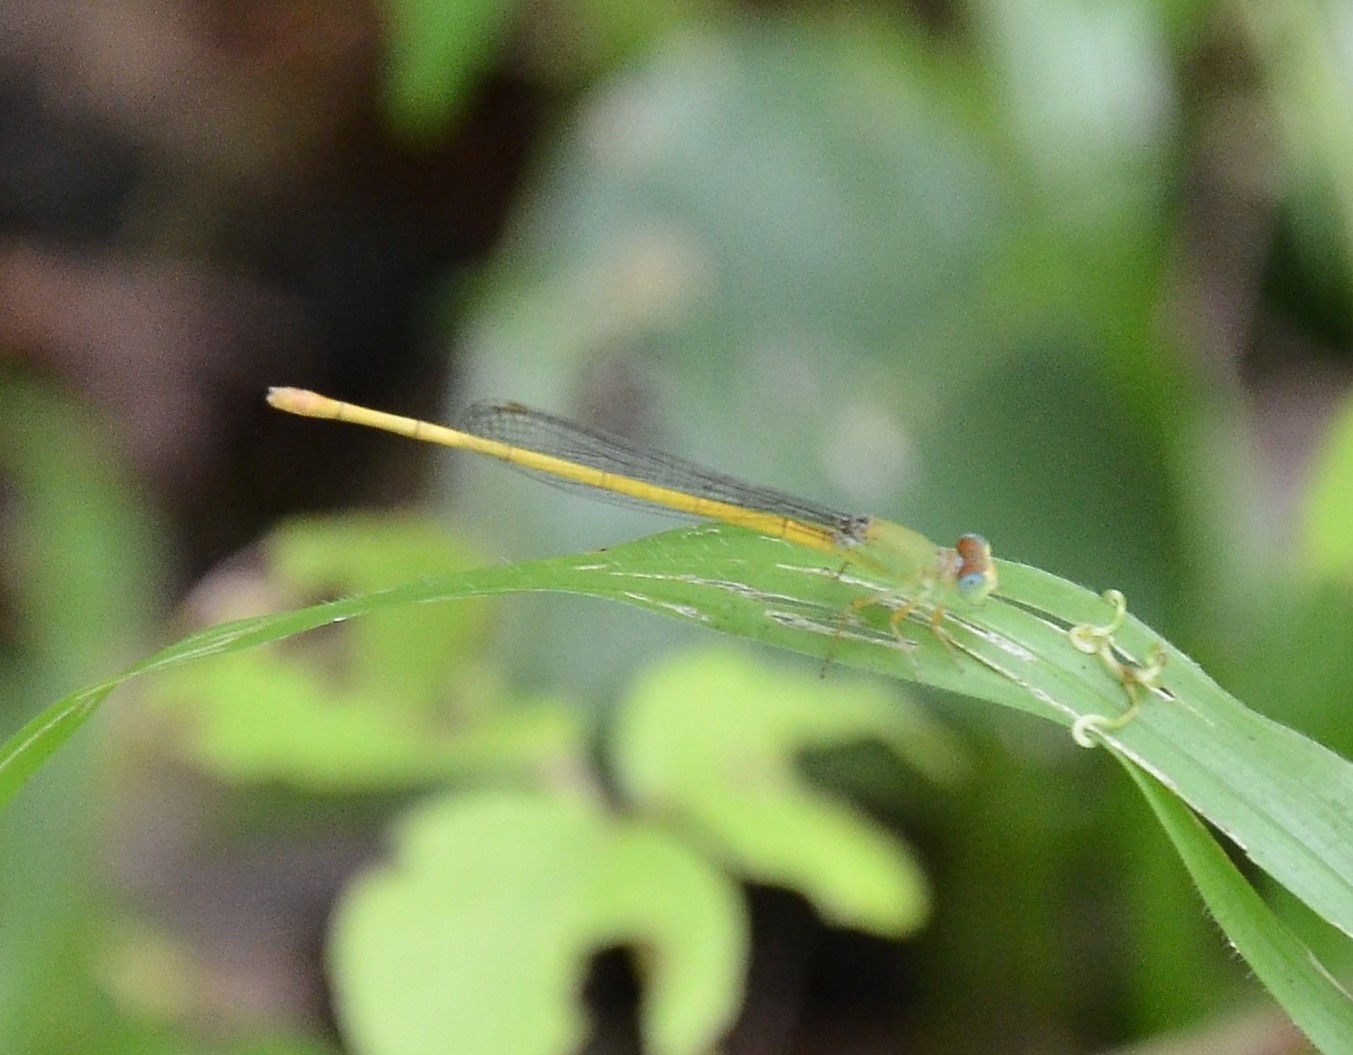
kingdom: Animalia
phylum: Arthropoda
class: Insecta
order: Odonata
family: Coenagrionidae
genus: Ceriagrion
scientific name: Ceriagrion coromandelianum
